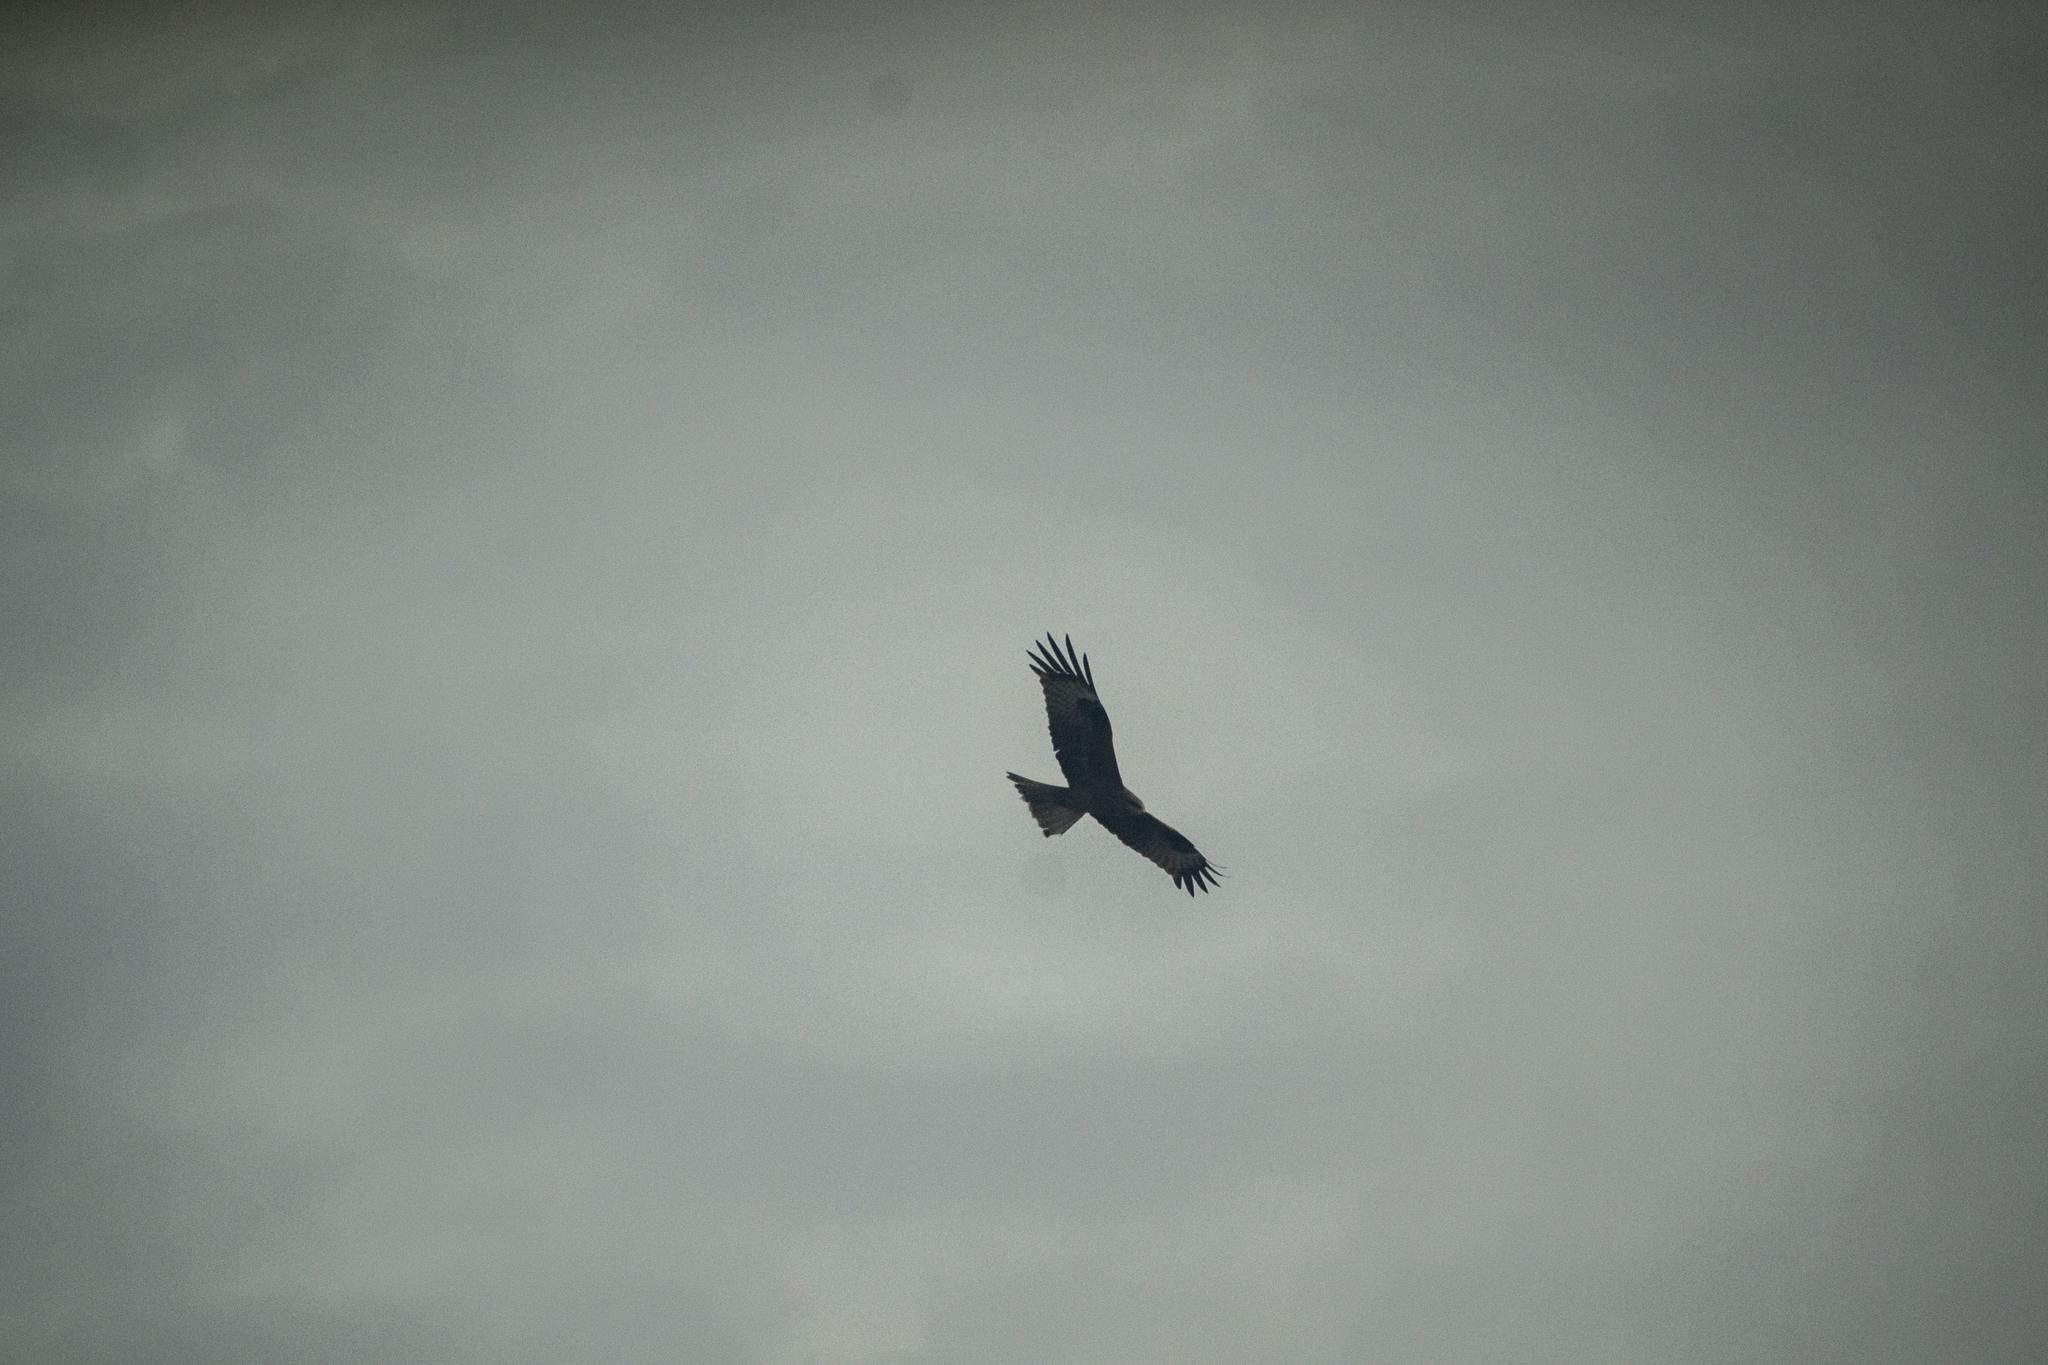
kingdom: Animalia
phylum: Chordata
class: Aves
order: Accipitriformes
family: Accipitridae
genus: Milvus
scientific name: Milvus migrans
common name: Black kite
